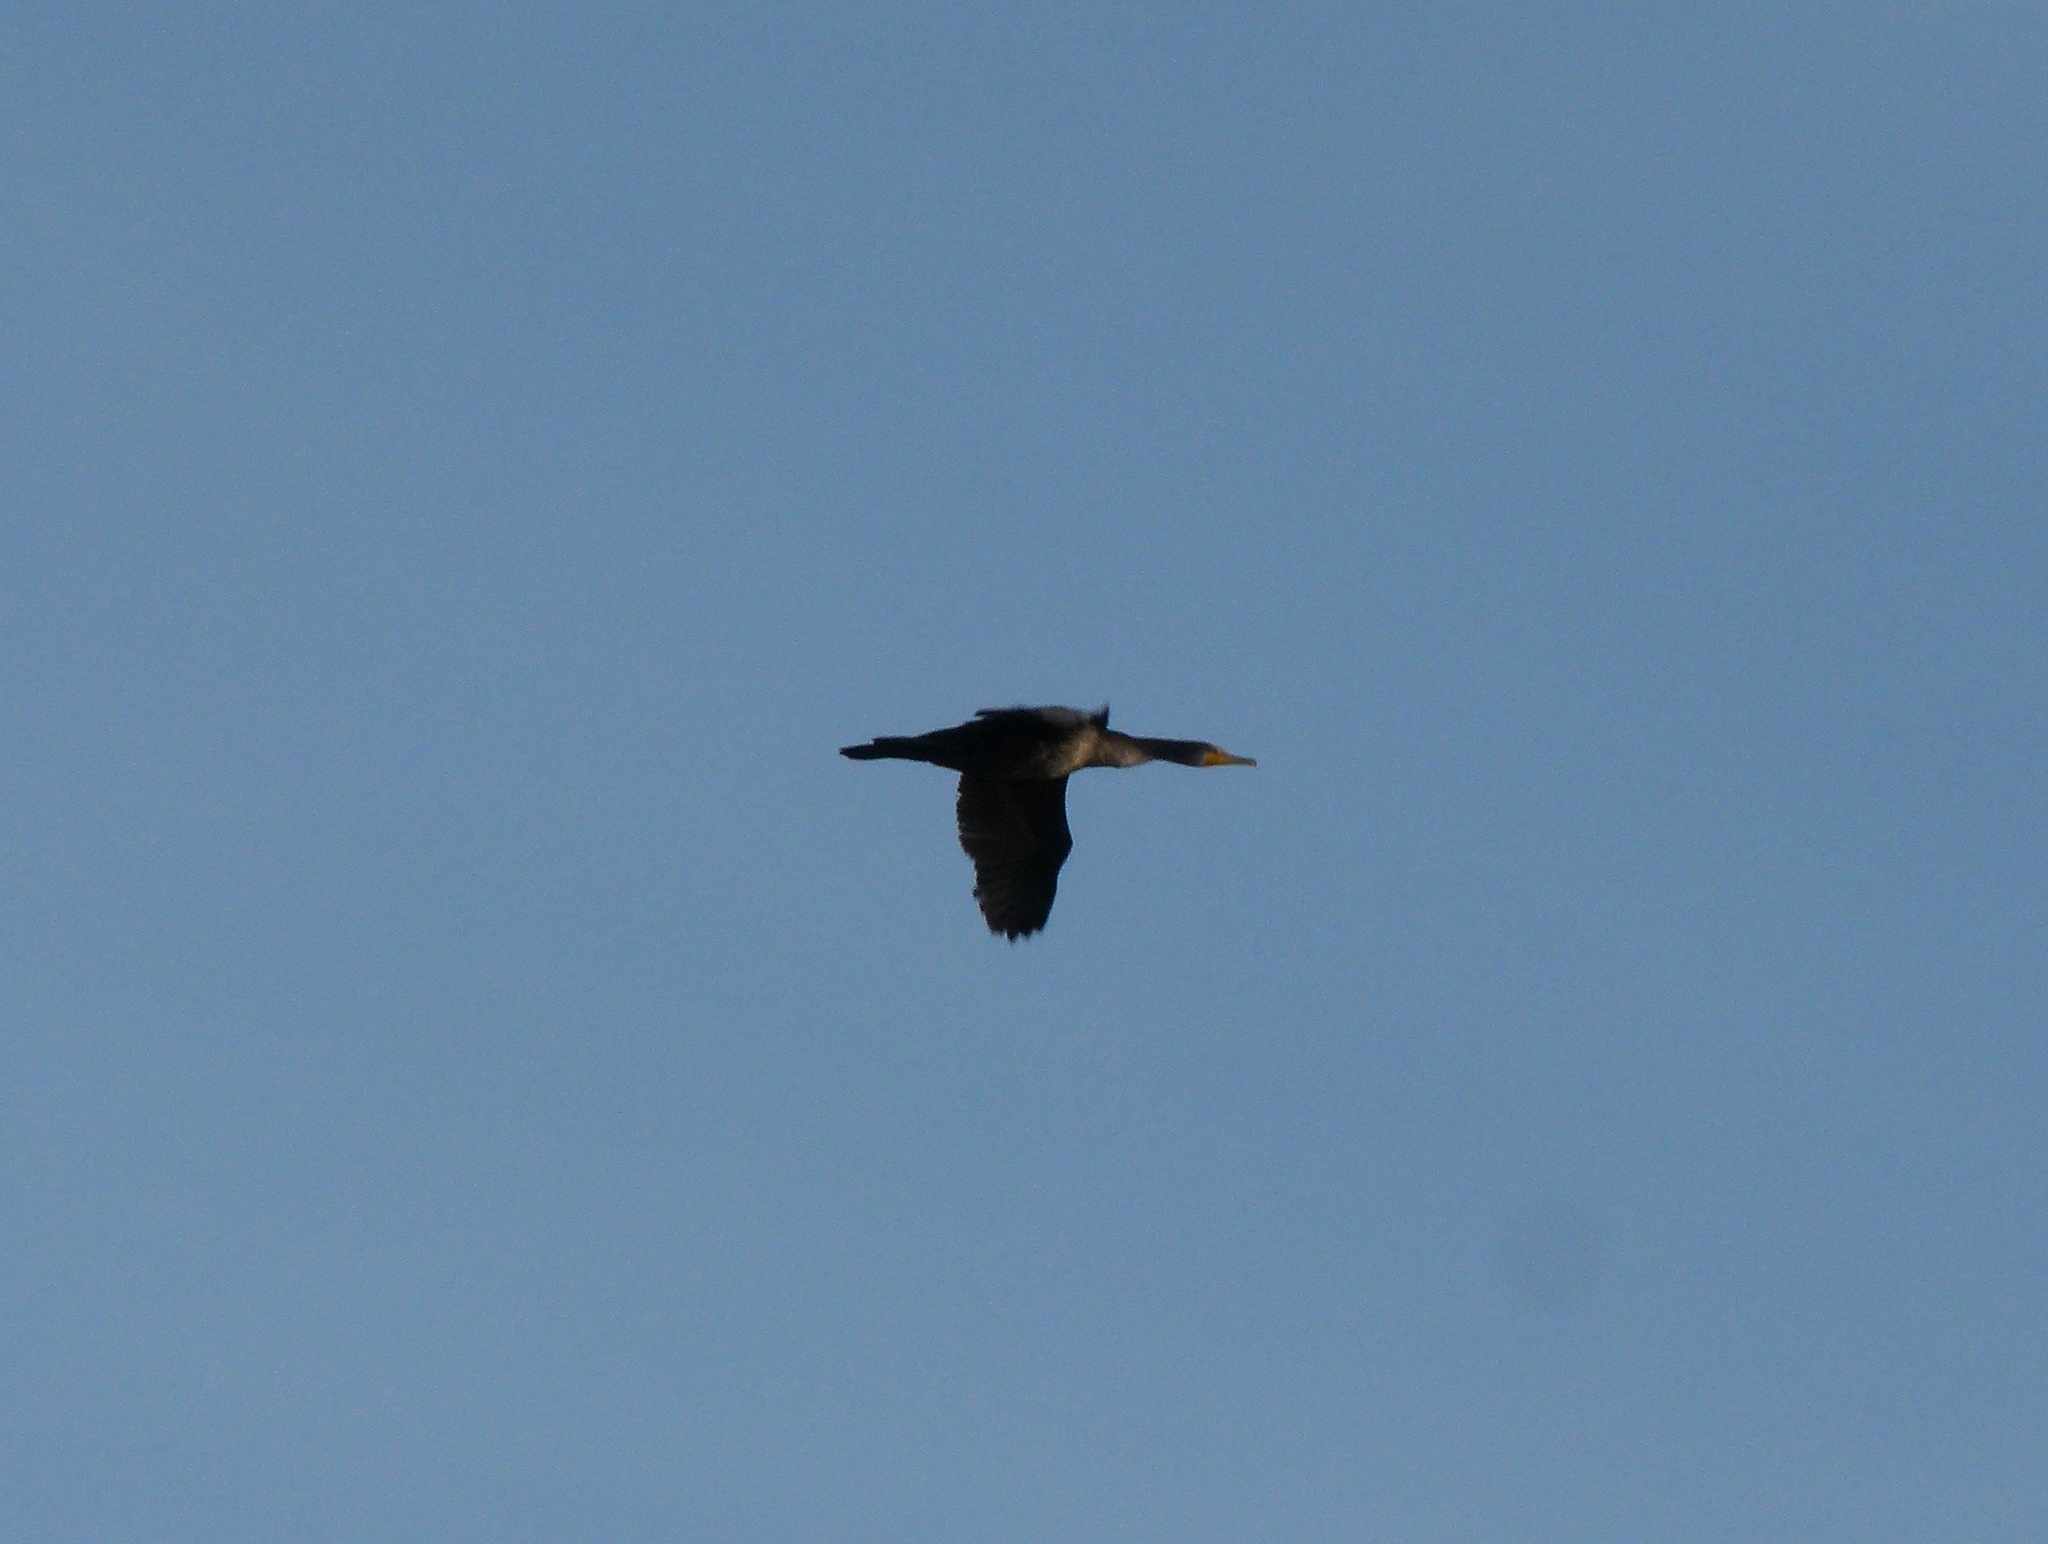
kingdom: Animalia
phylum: Chordata
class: Aves
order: Suliformes
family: Phalacrocoracidae
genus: Phalacrocorax
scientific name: Phalacrocorax auritus
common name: Double-crested cormorant
